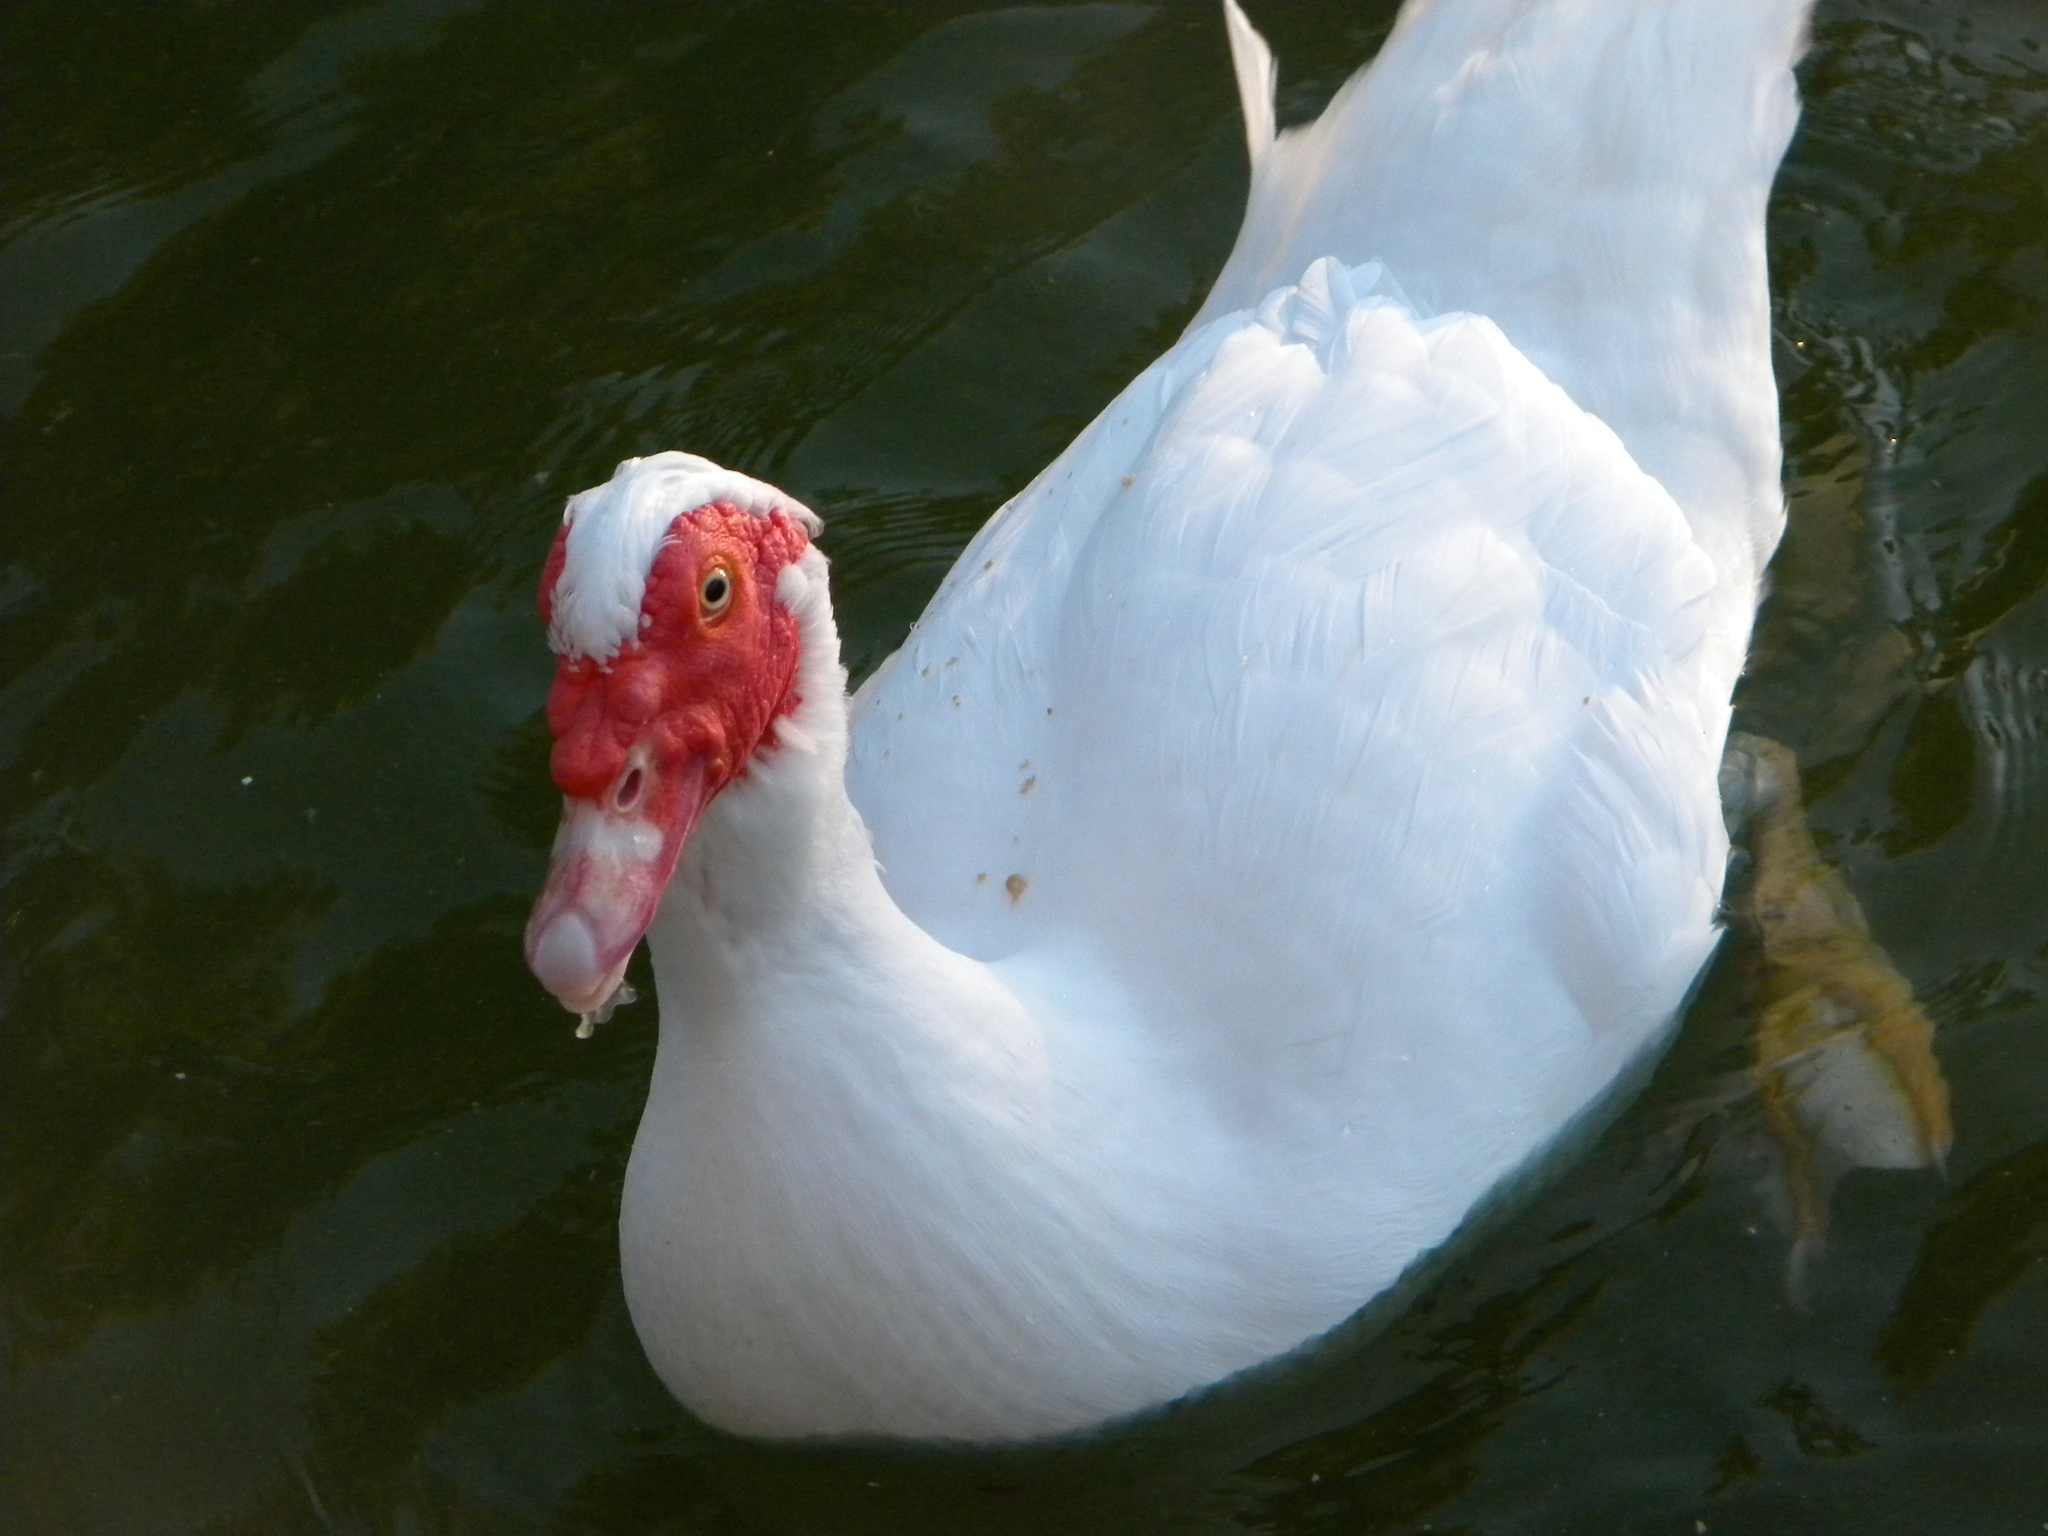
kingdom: Animalia
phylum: Chordata
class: Aves
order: Anseriformes
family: Anatidae
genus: Cairina
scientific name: Cairina moschata
